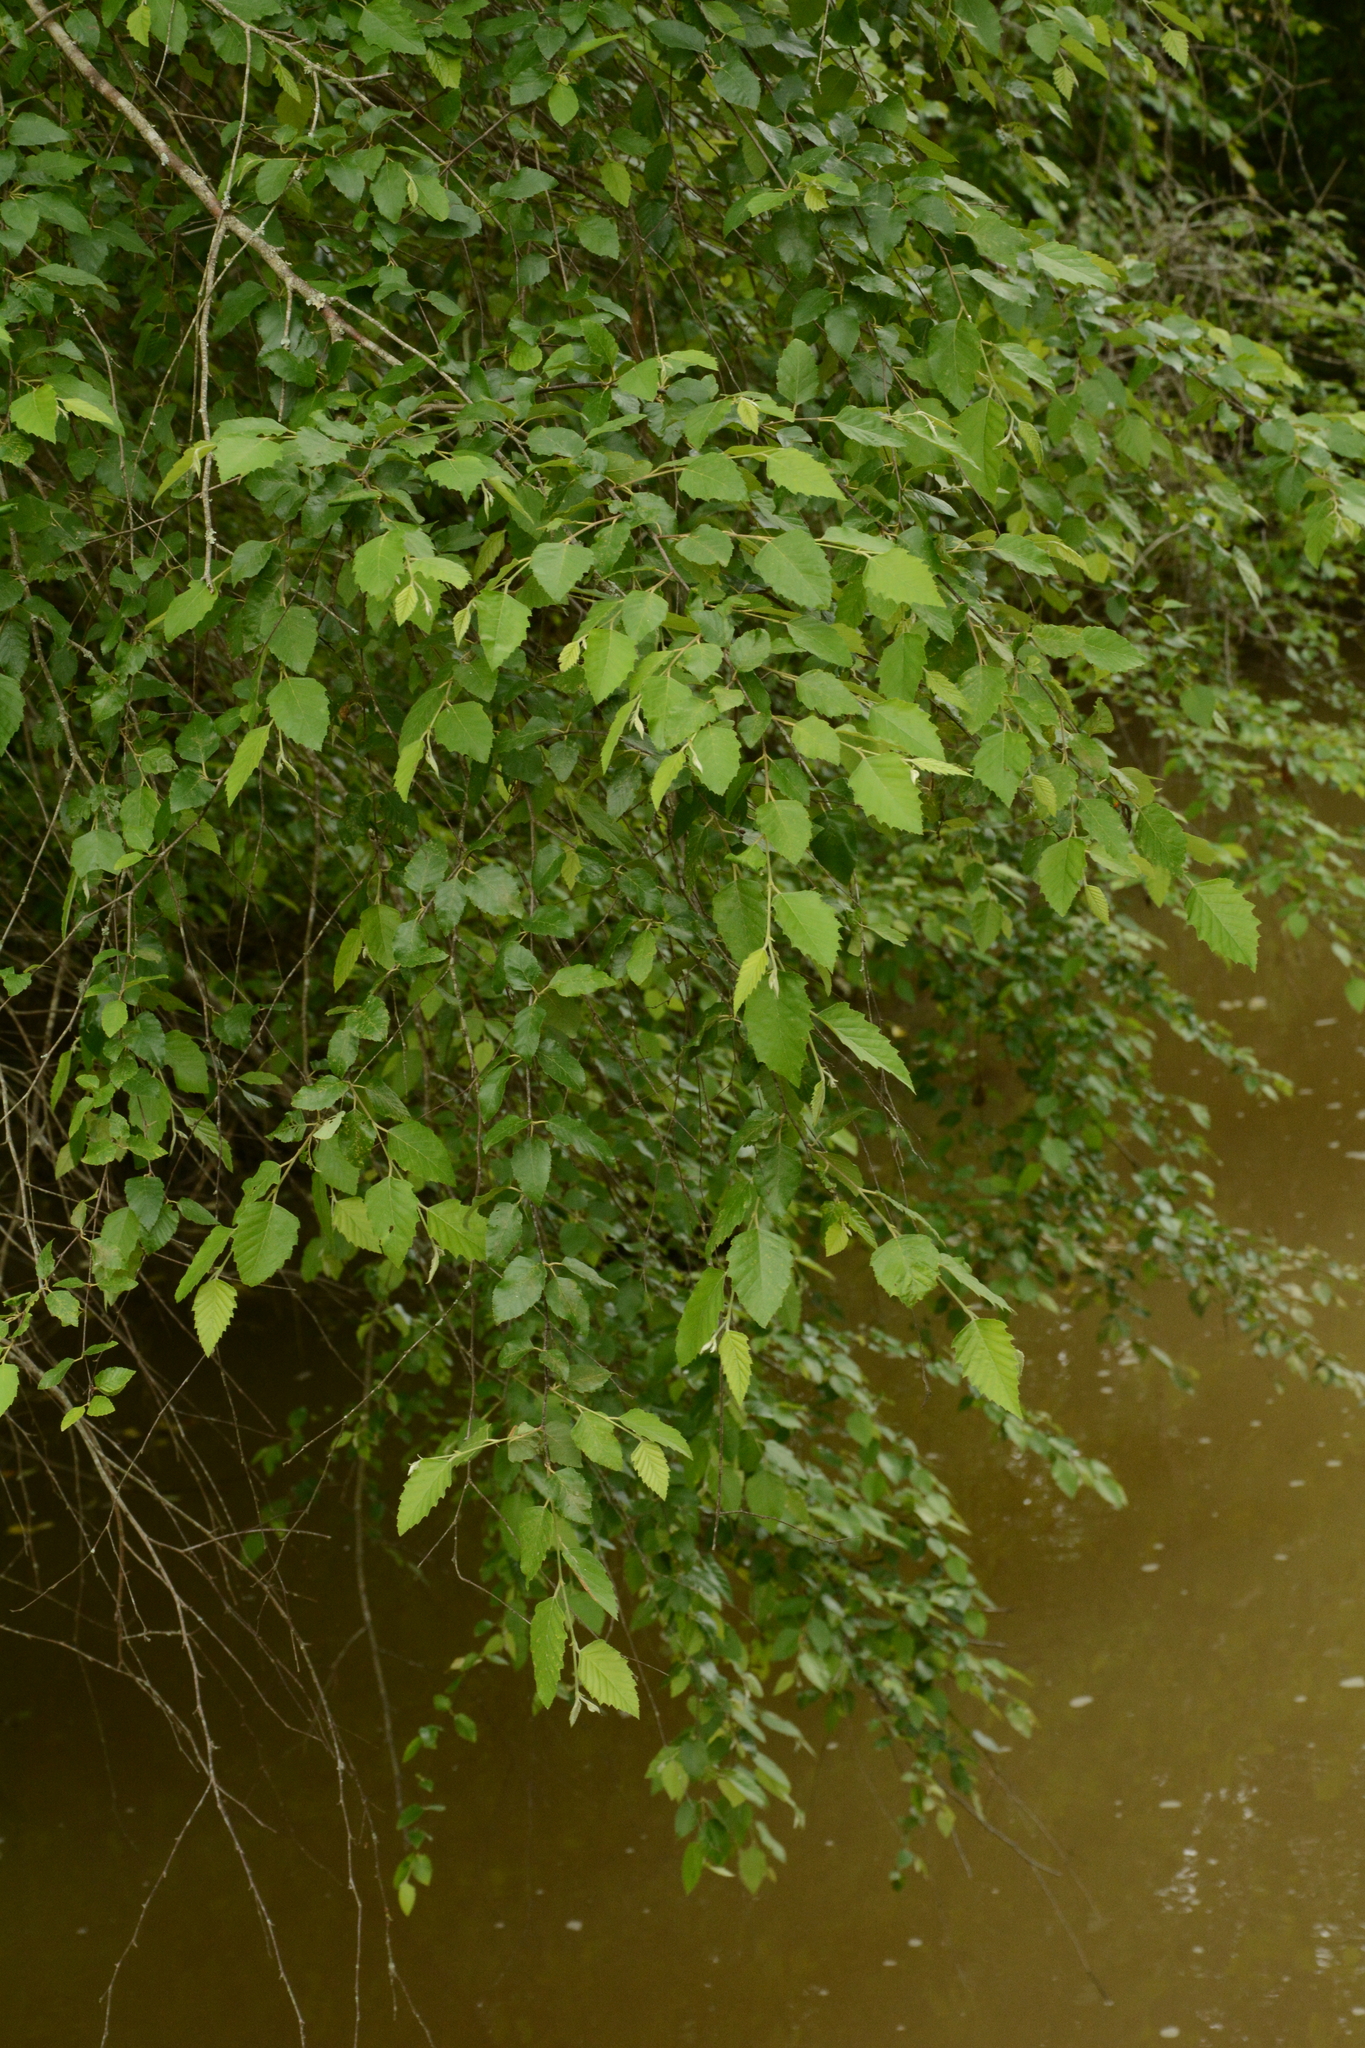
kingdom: Plantae
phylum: Tracheophyta
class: Magnoliopsida
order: Fagales
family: Betulaceae
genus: Betula
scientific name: Betula nigra
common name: Black birch
